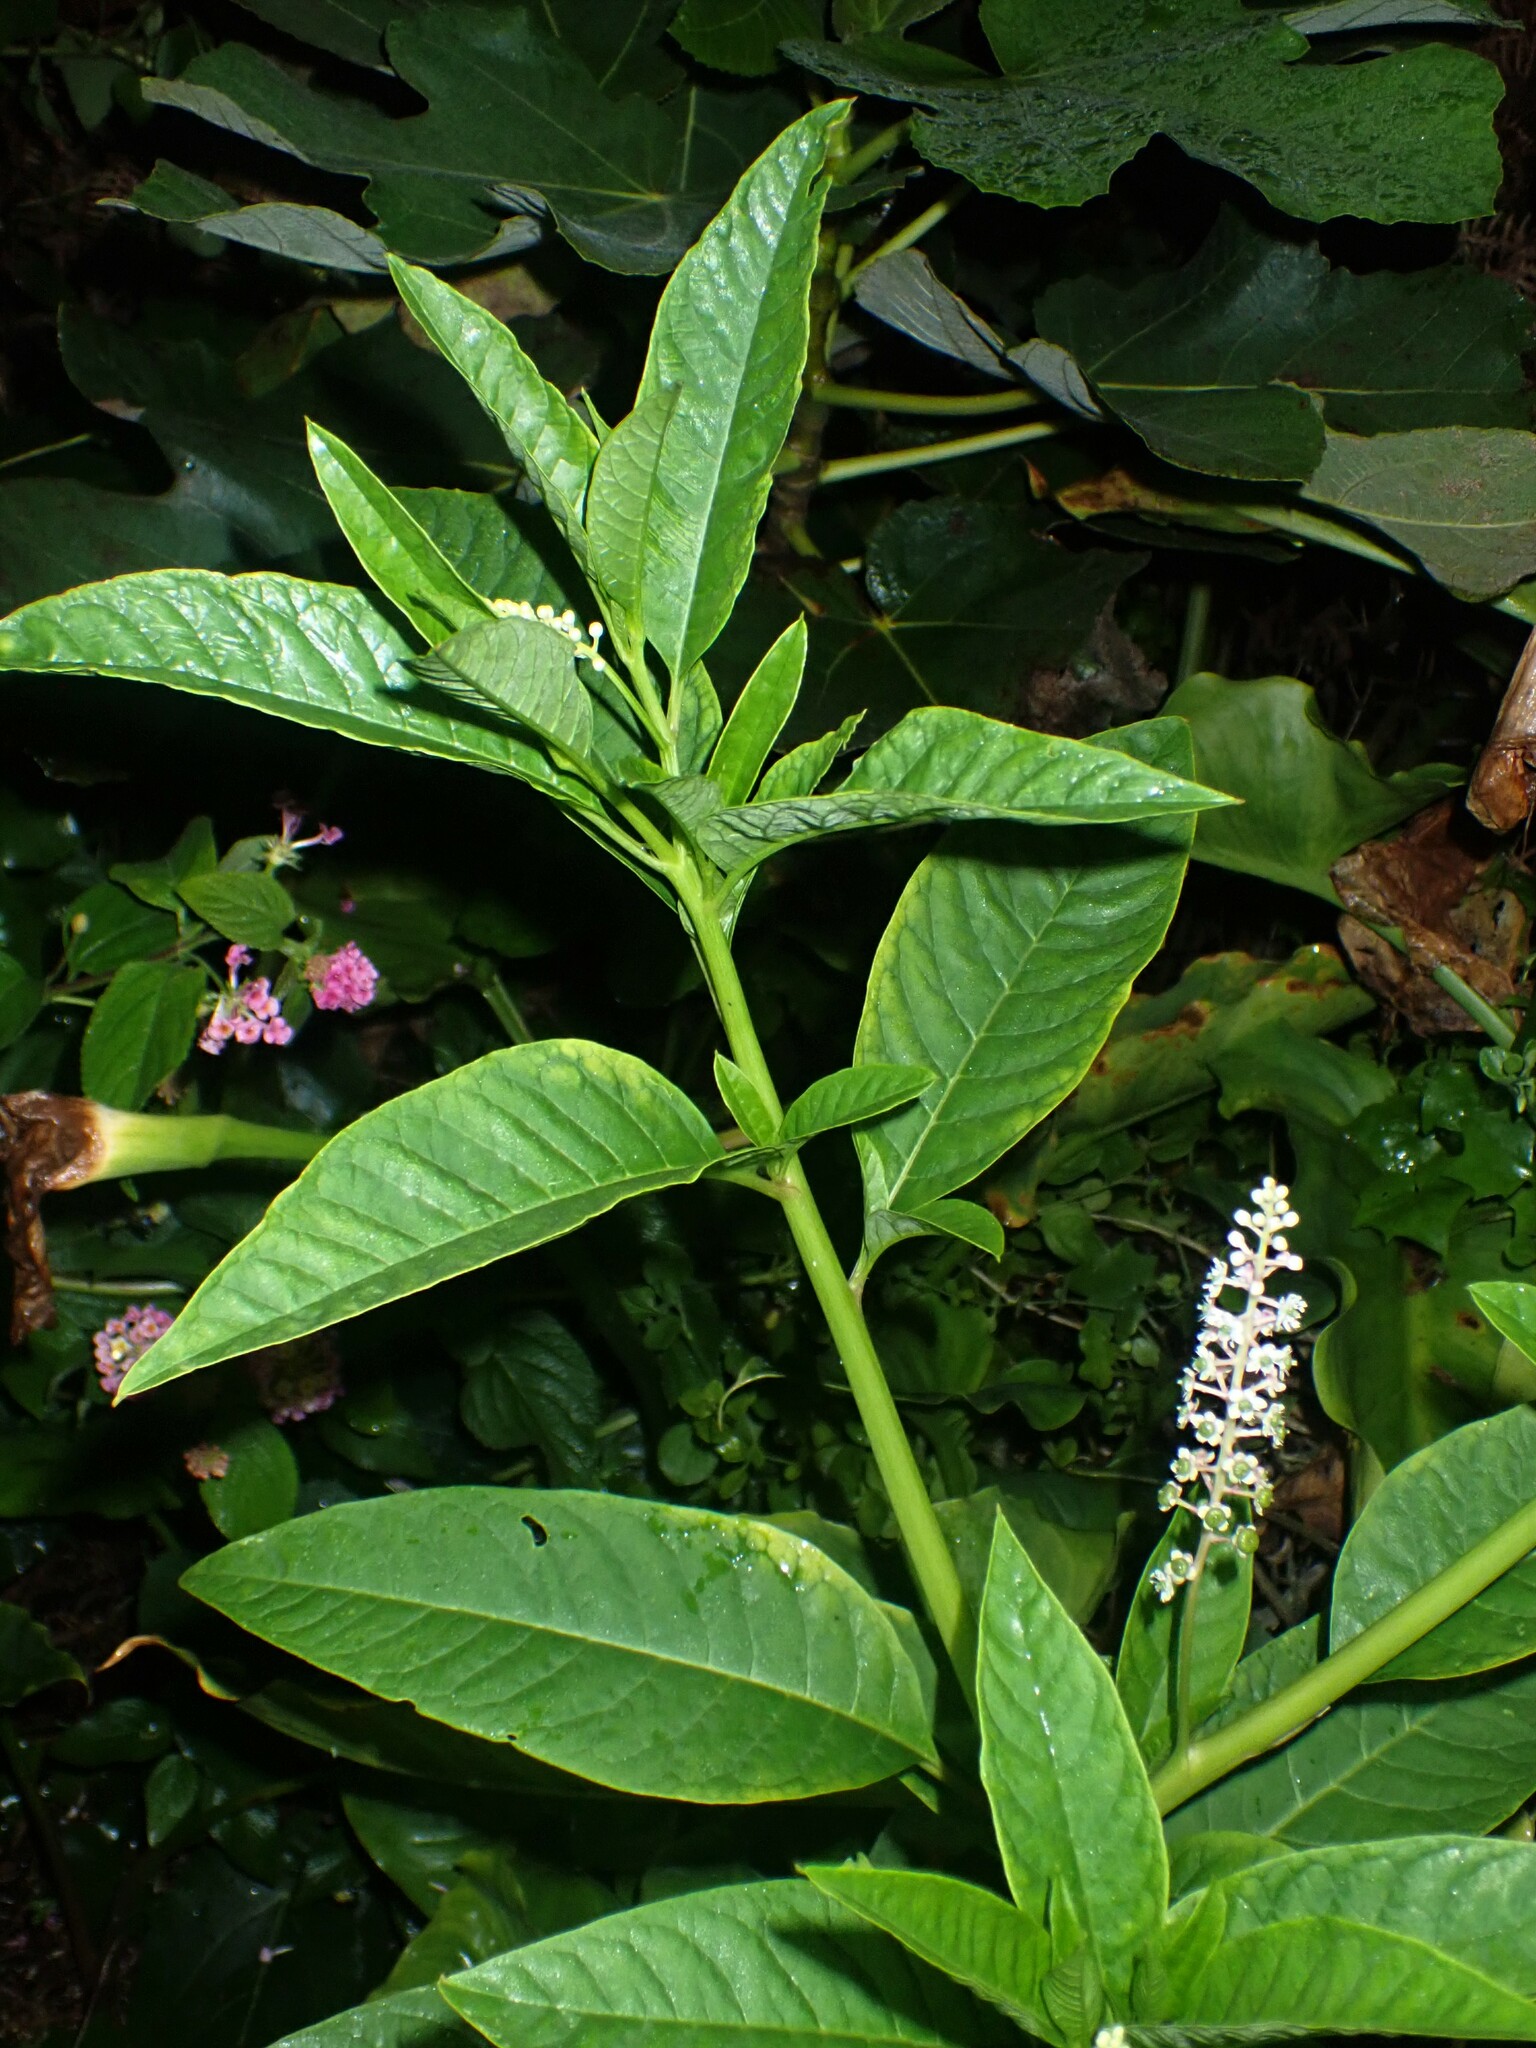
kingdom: Plantae
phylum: Tracheophyta
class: Magnoliopsida
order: Caryophyllales
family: Phytolaccaceae
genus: Phytolacca
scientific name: Phytolacca americana
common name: American pokeweed
